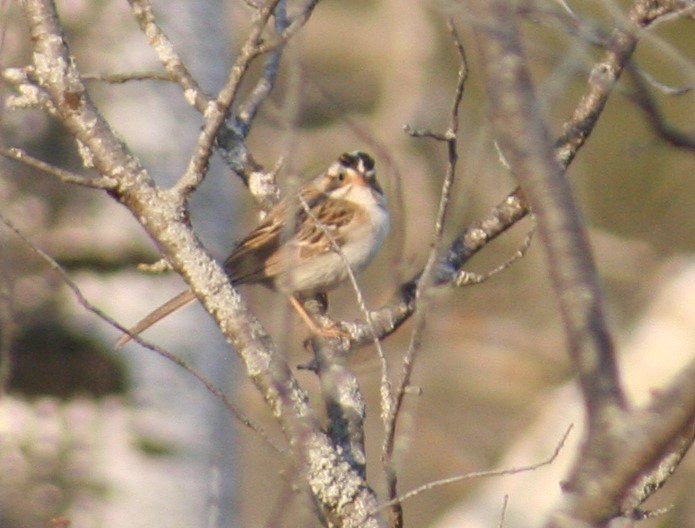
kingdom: Animalia
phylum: Chordata
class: Aves
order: Passeriformes
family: Passerellidae
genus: Spizella
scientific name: Spizella pallida
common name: Clay-colored sparrow
